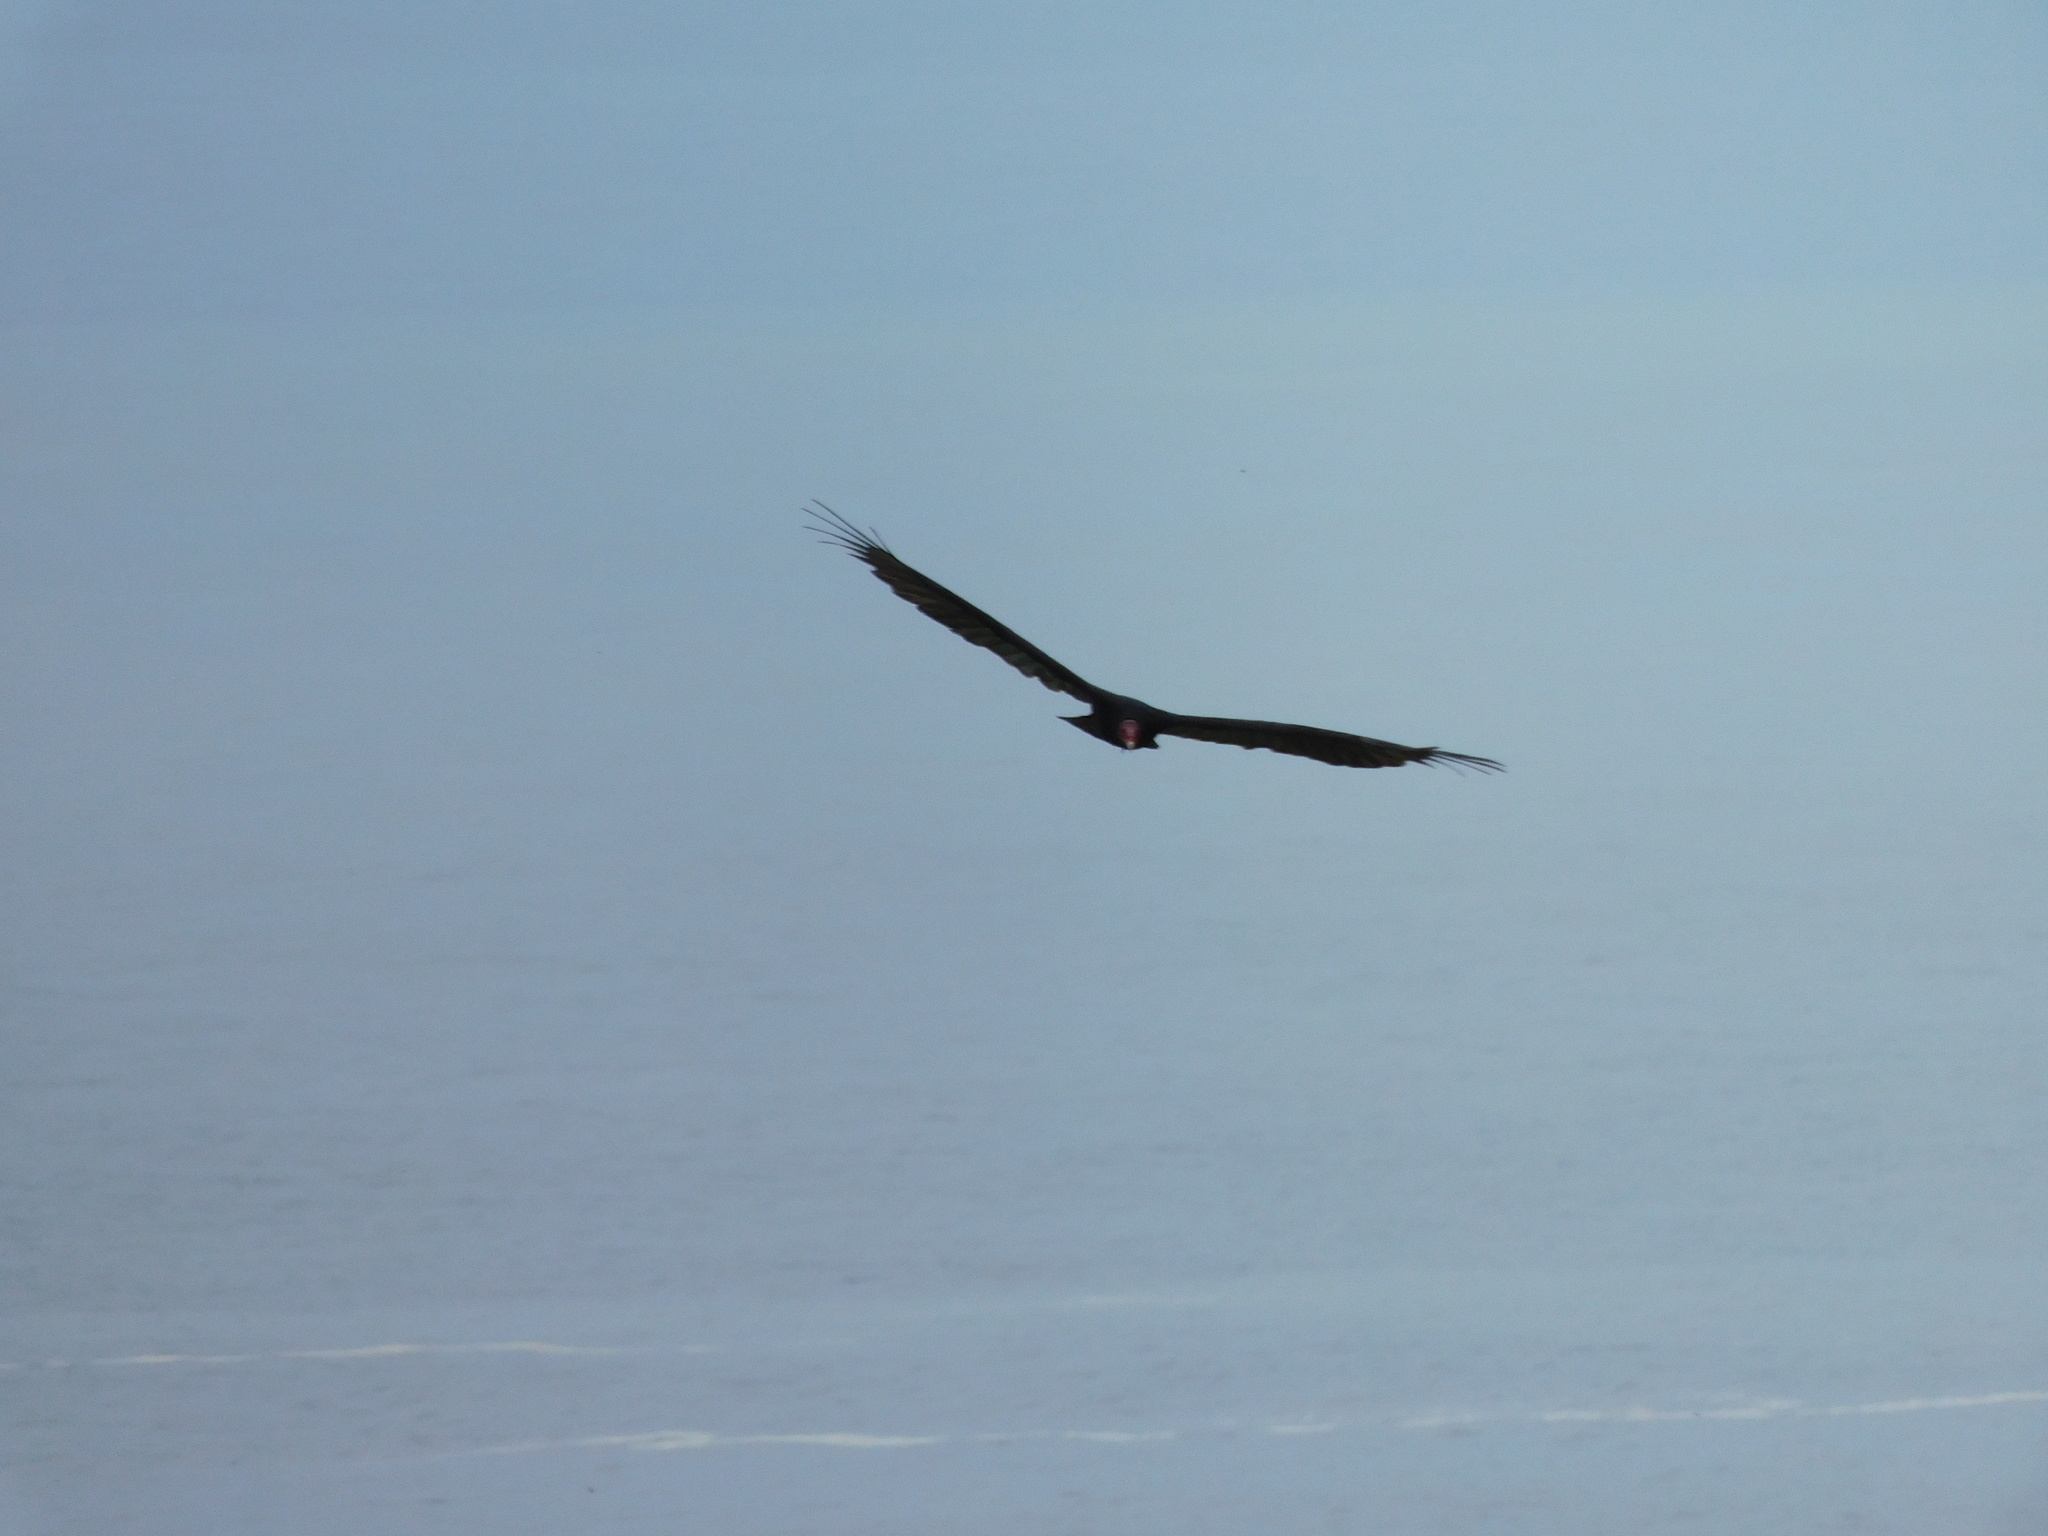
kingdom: Animalia
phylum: Chordata
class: Aves
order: Accipitriformes
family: Cathartidae
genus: Cathartes
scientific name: Cathartes aura
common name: Turkey vulture
